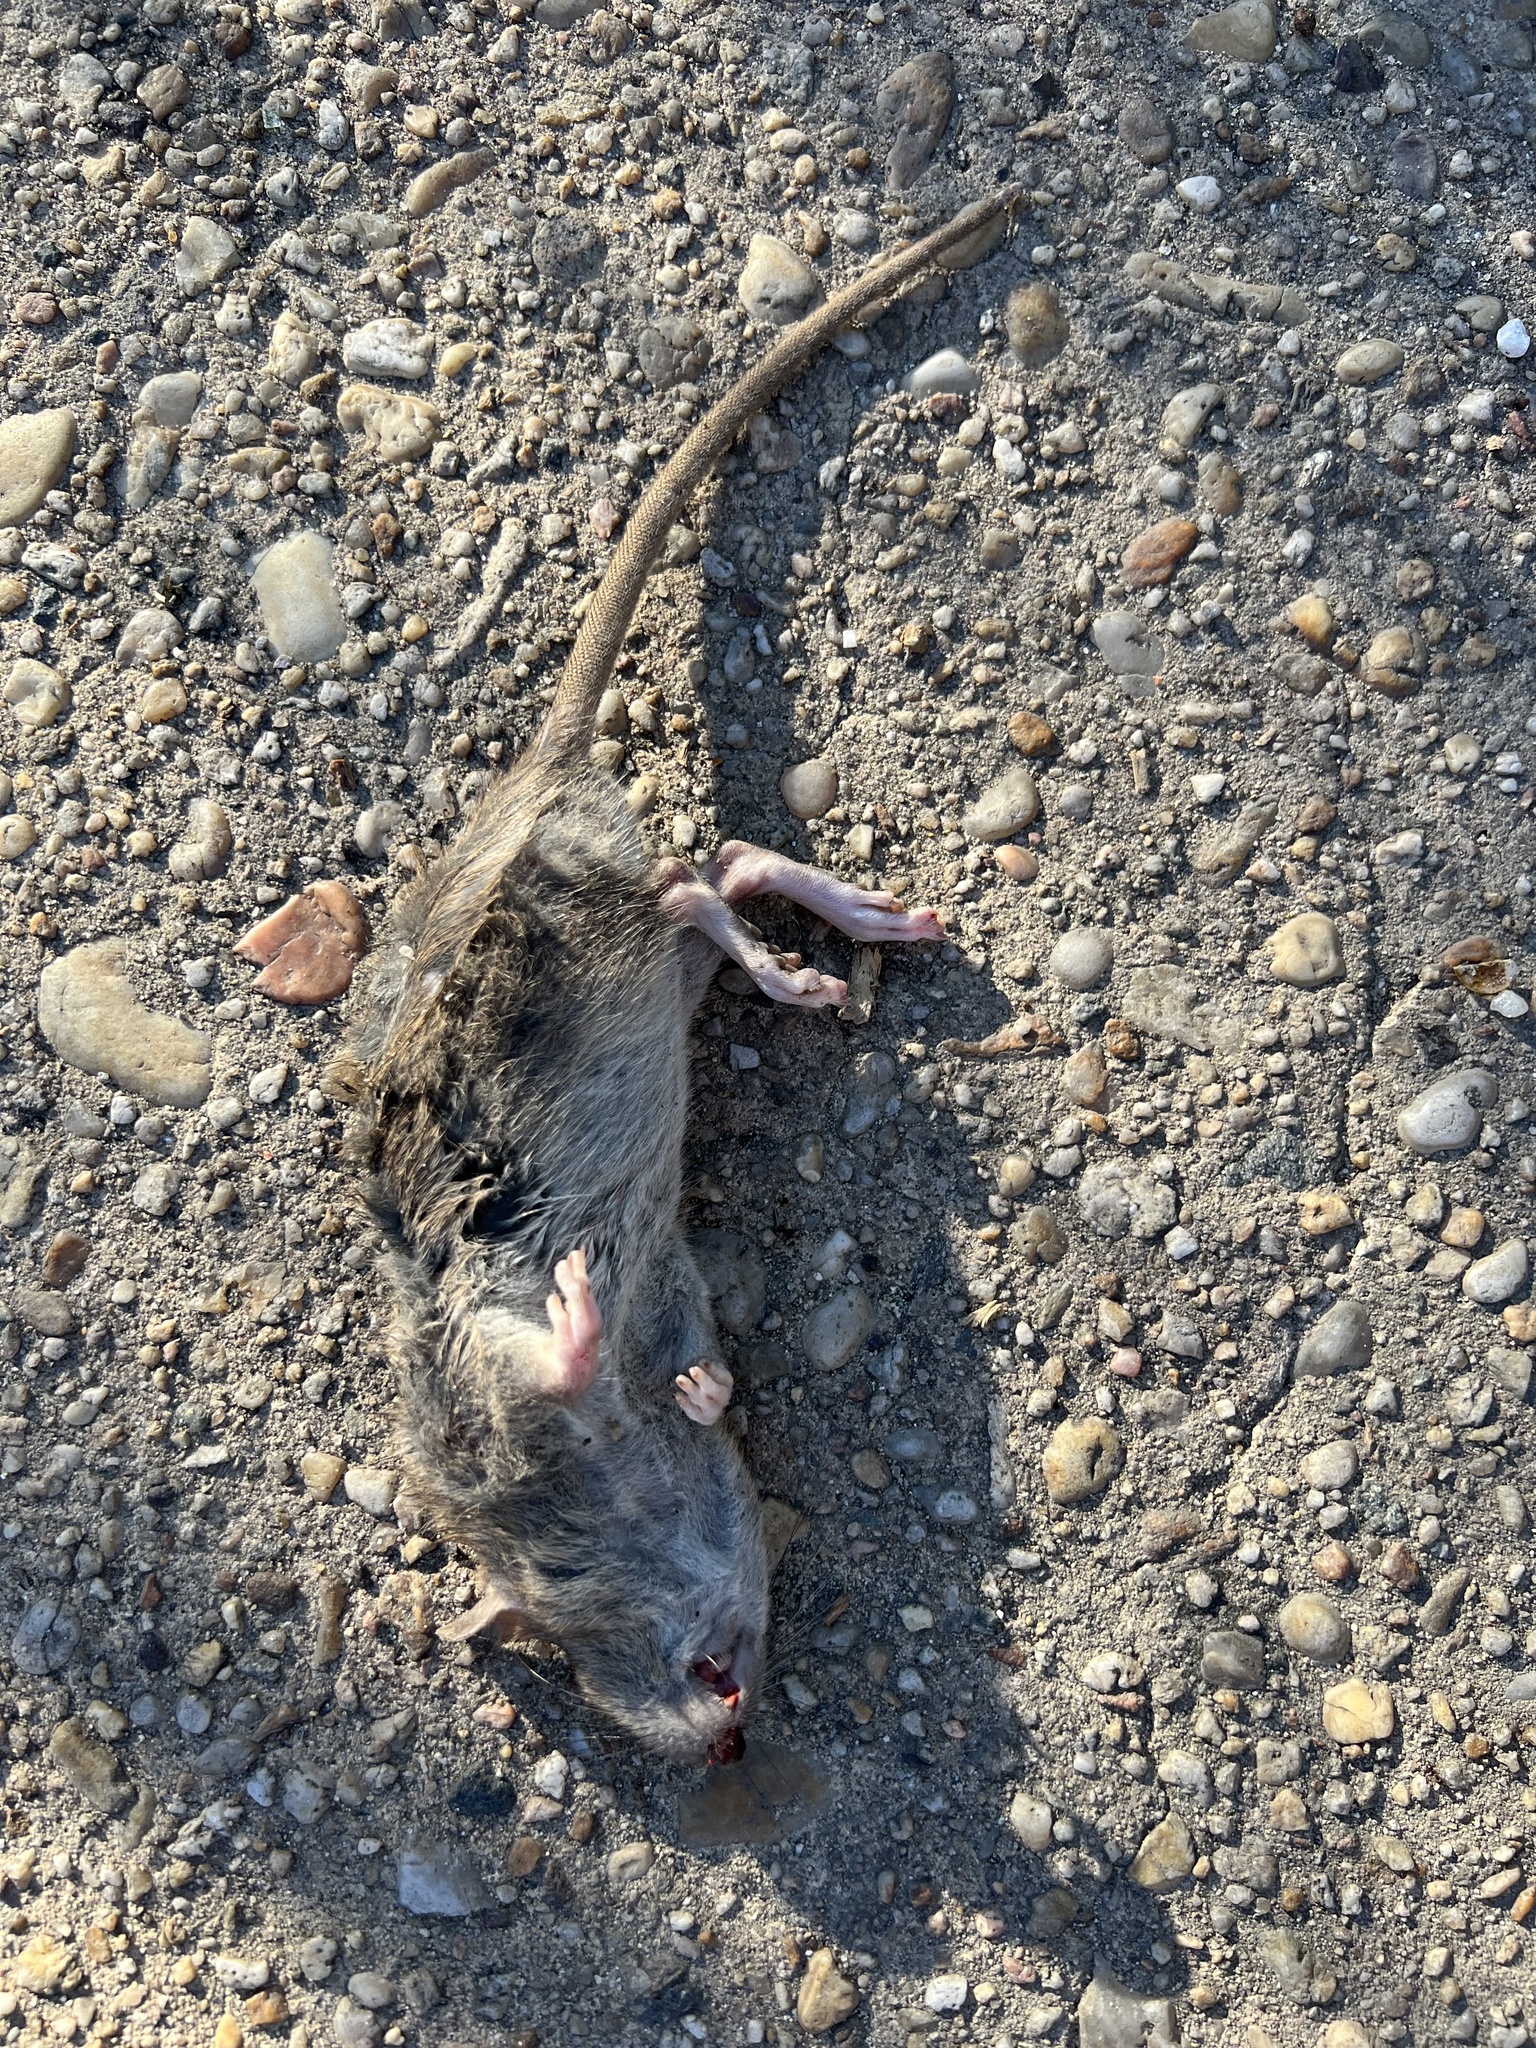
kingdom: Animalia
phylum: Chordata
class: Mammalia
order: Rodentia
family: Muridae
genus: Rattus
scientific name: Rattus norvegicus
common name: Brown rat
